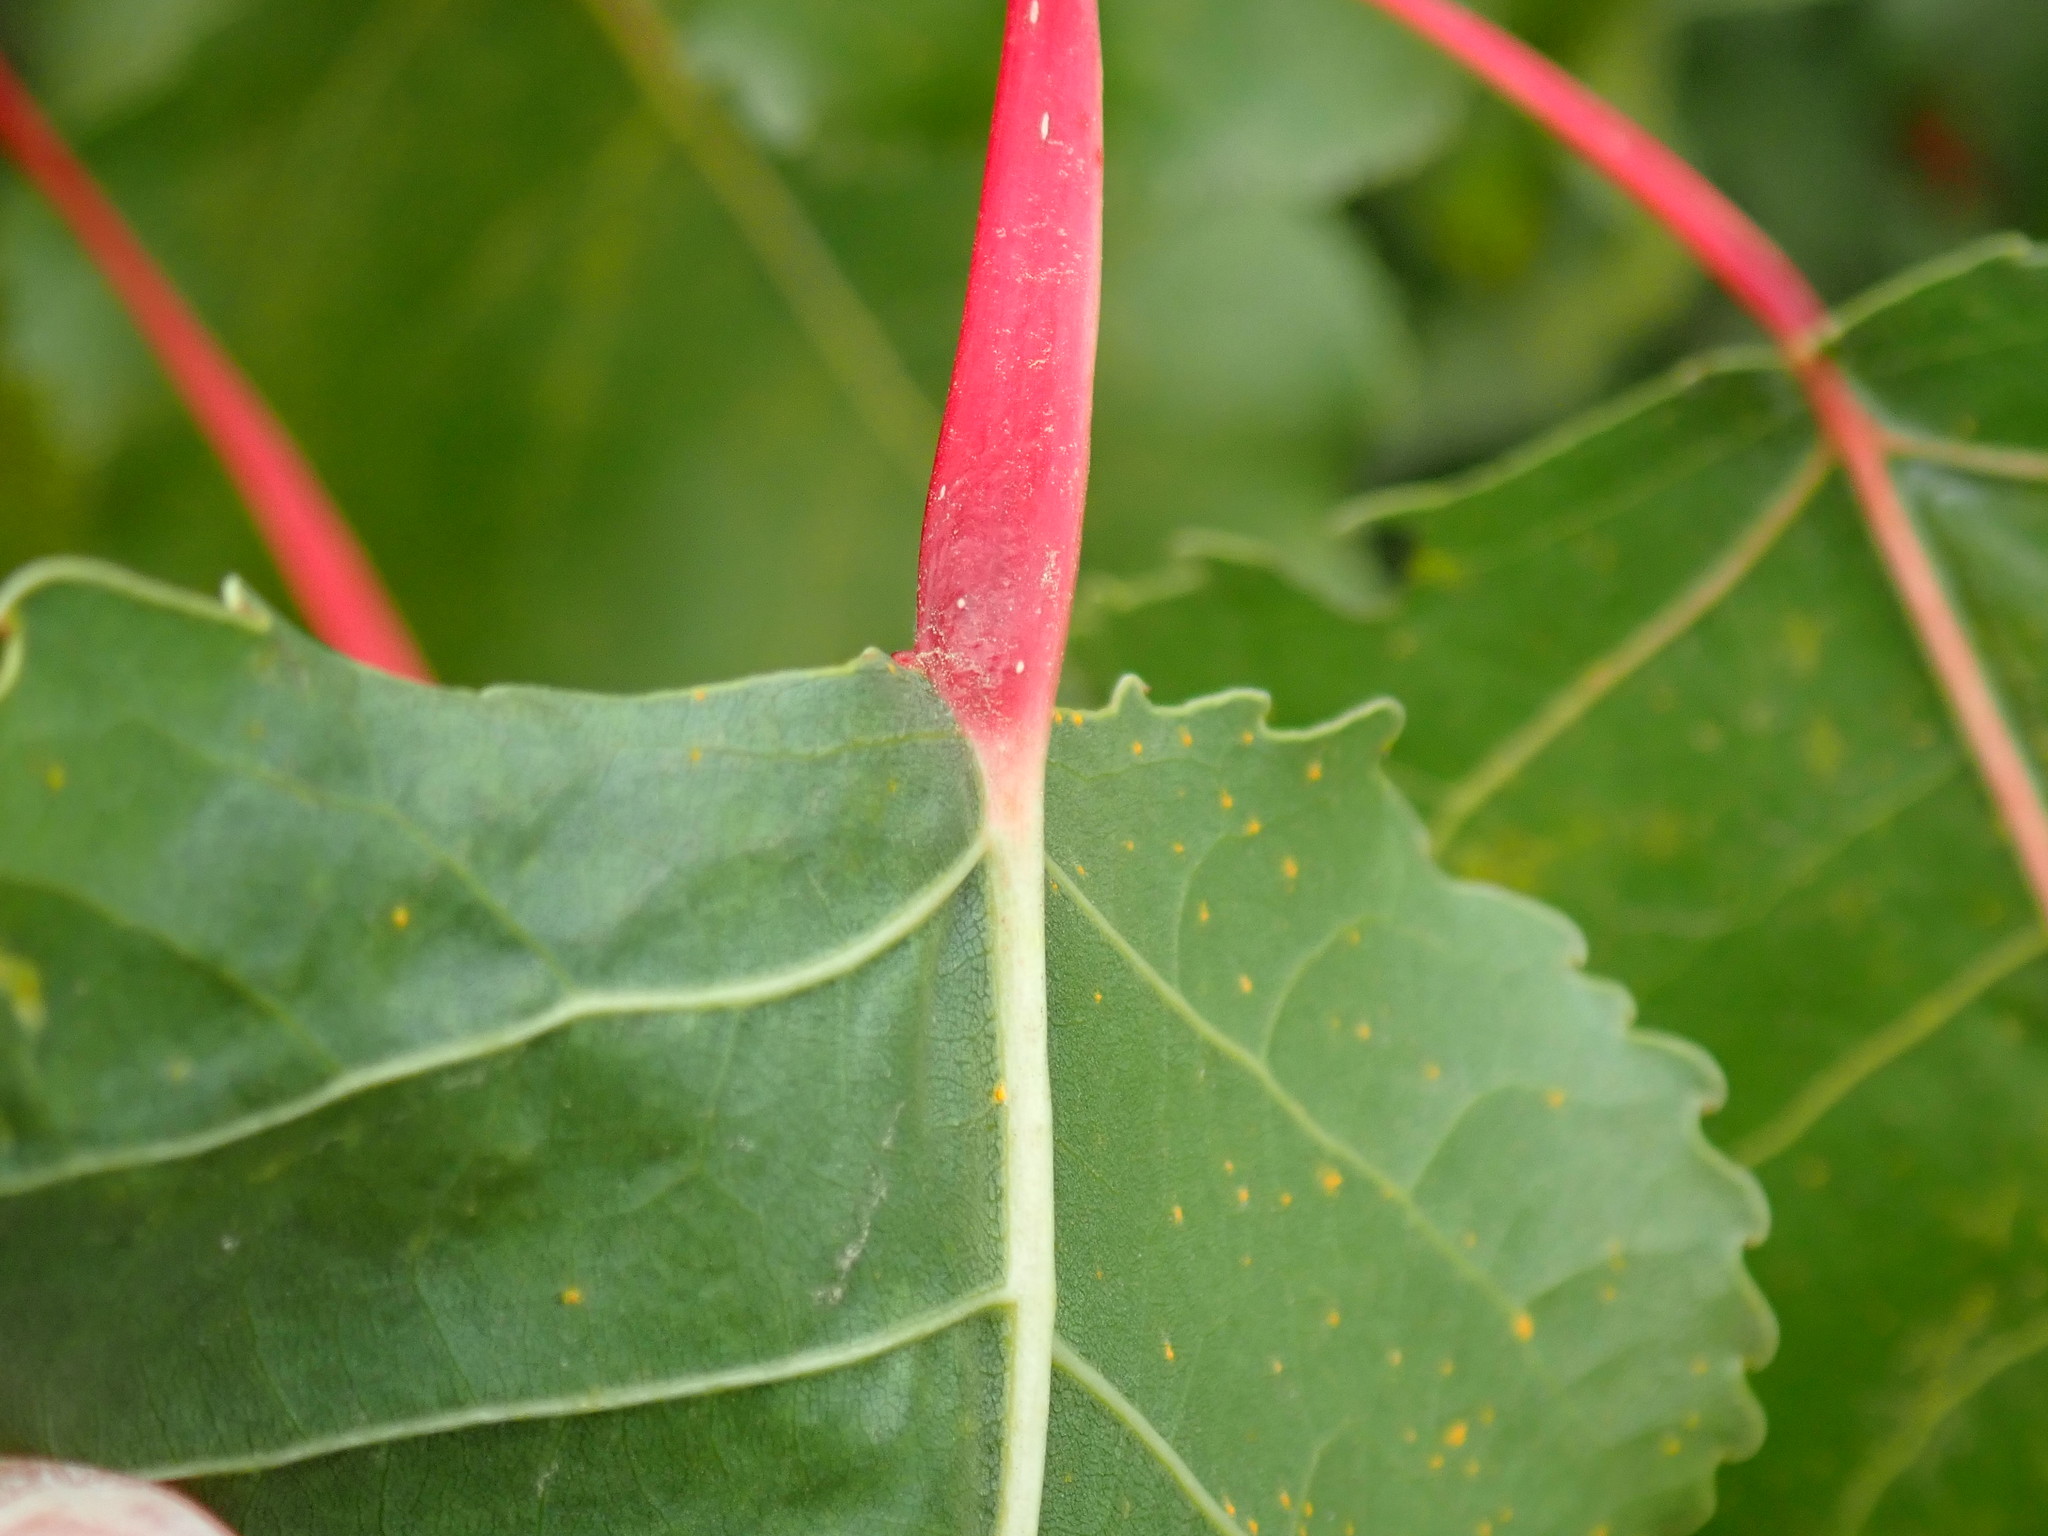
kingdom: Plantae
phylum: Tracheophyta
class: Magnoliopsida
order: Malpighiales
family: Salicaceae
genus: Populus
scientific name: Populus deltoides
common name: Eastern cottonwood
